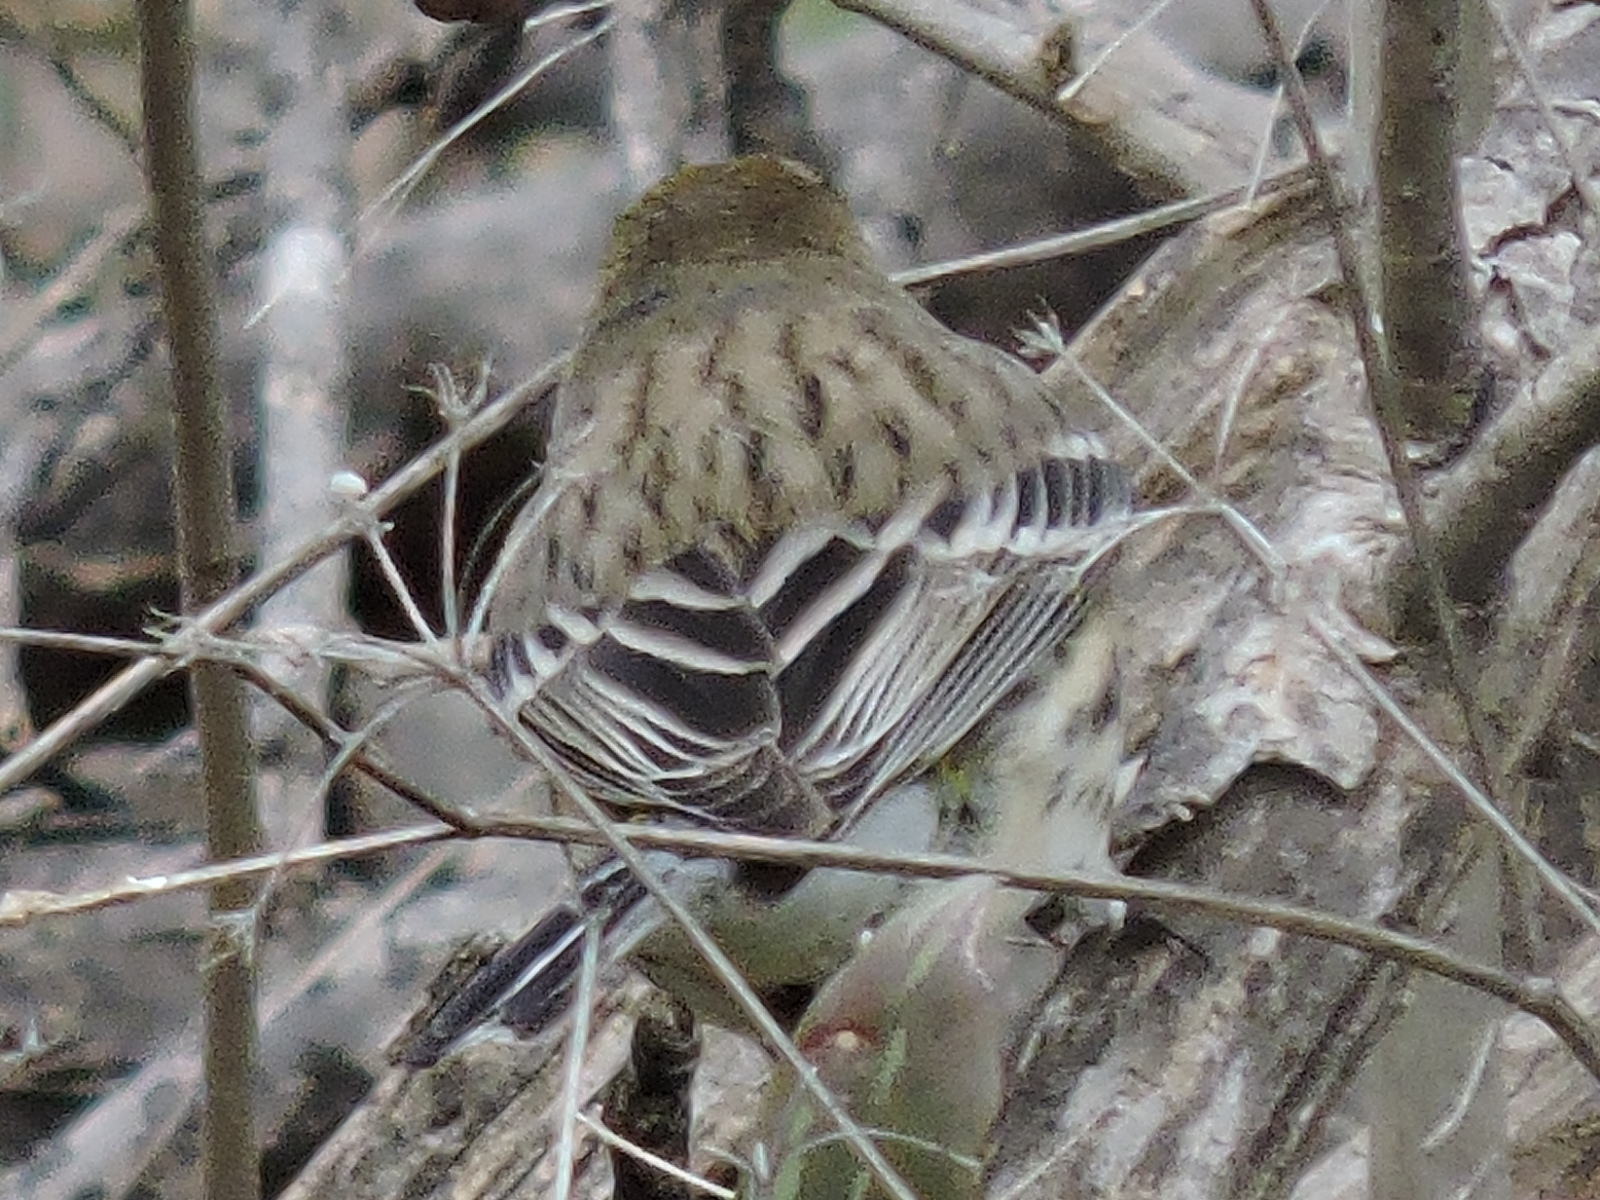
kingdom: Animalia
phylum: Chordata
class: Aves
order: Passeriformes
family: Parulidae
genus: Setophaga
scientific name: Setophaga coronata
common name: Myrtle warbler
